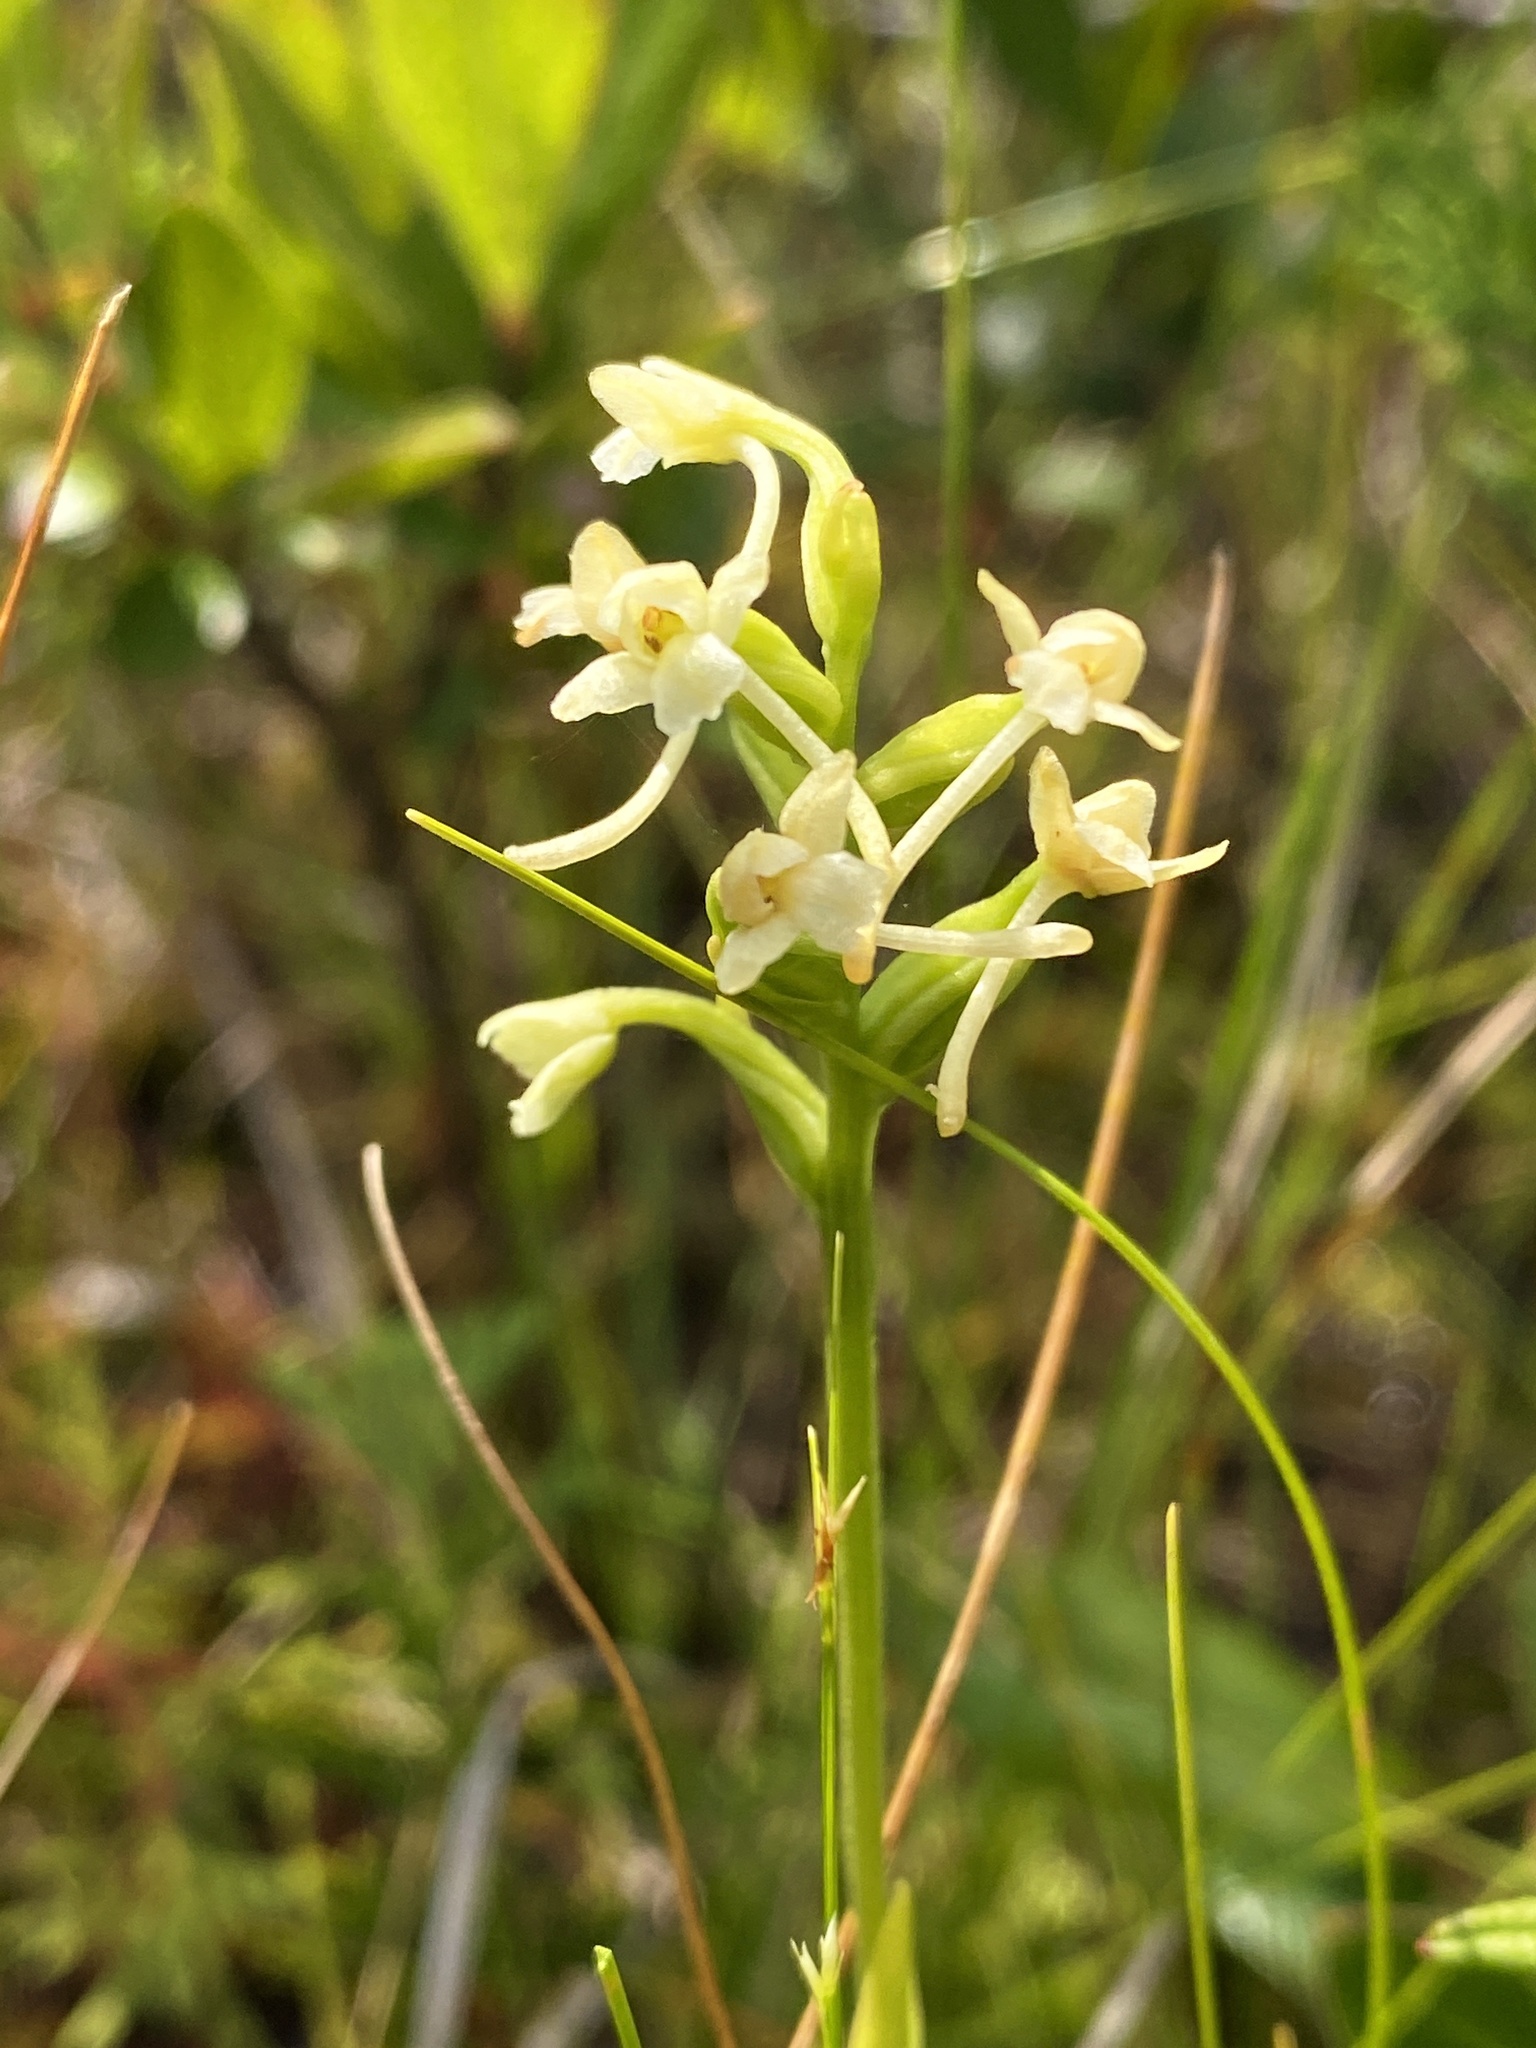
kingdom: Plantae
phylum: Tracheophyta
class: Liliopsida
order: Asparagales
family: Orchidaceae
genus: Platanthera
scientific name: Platanthera clavellata
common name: Club-spur orchid
